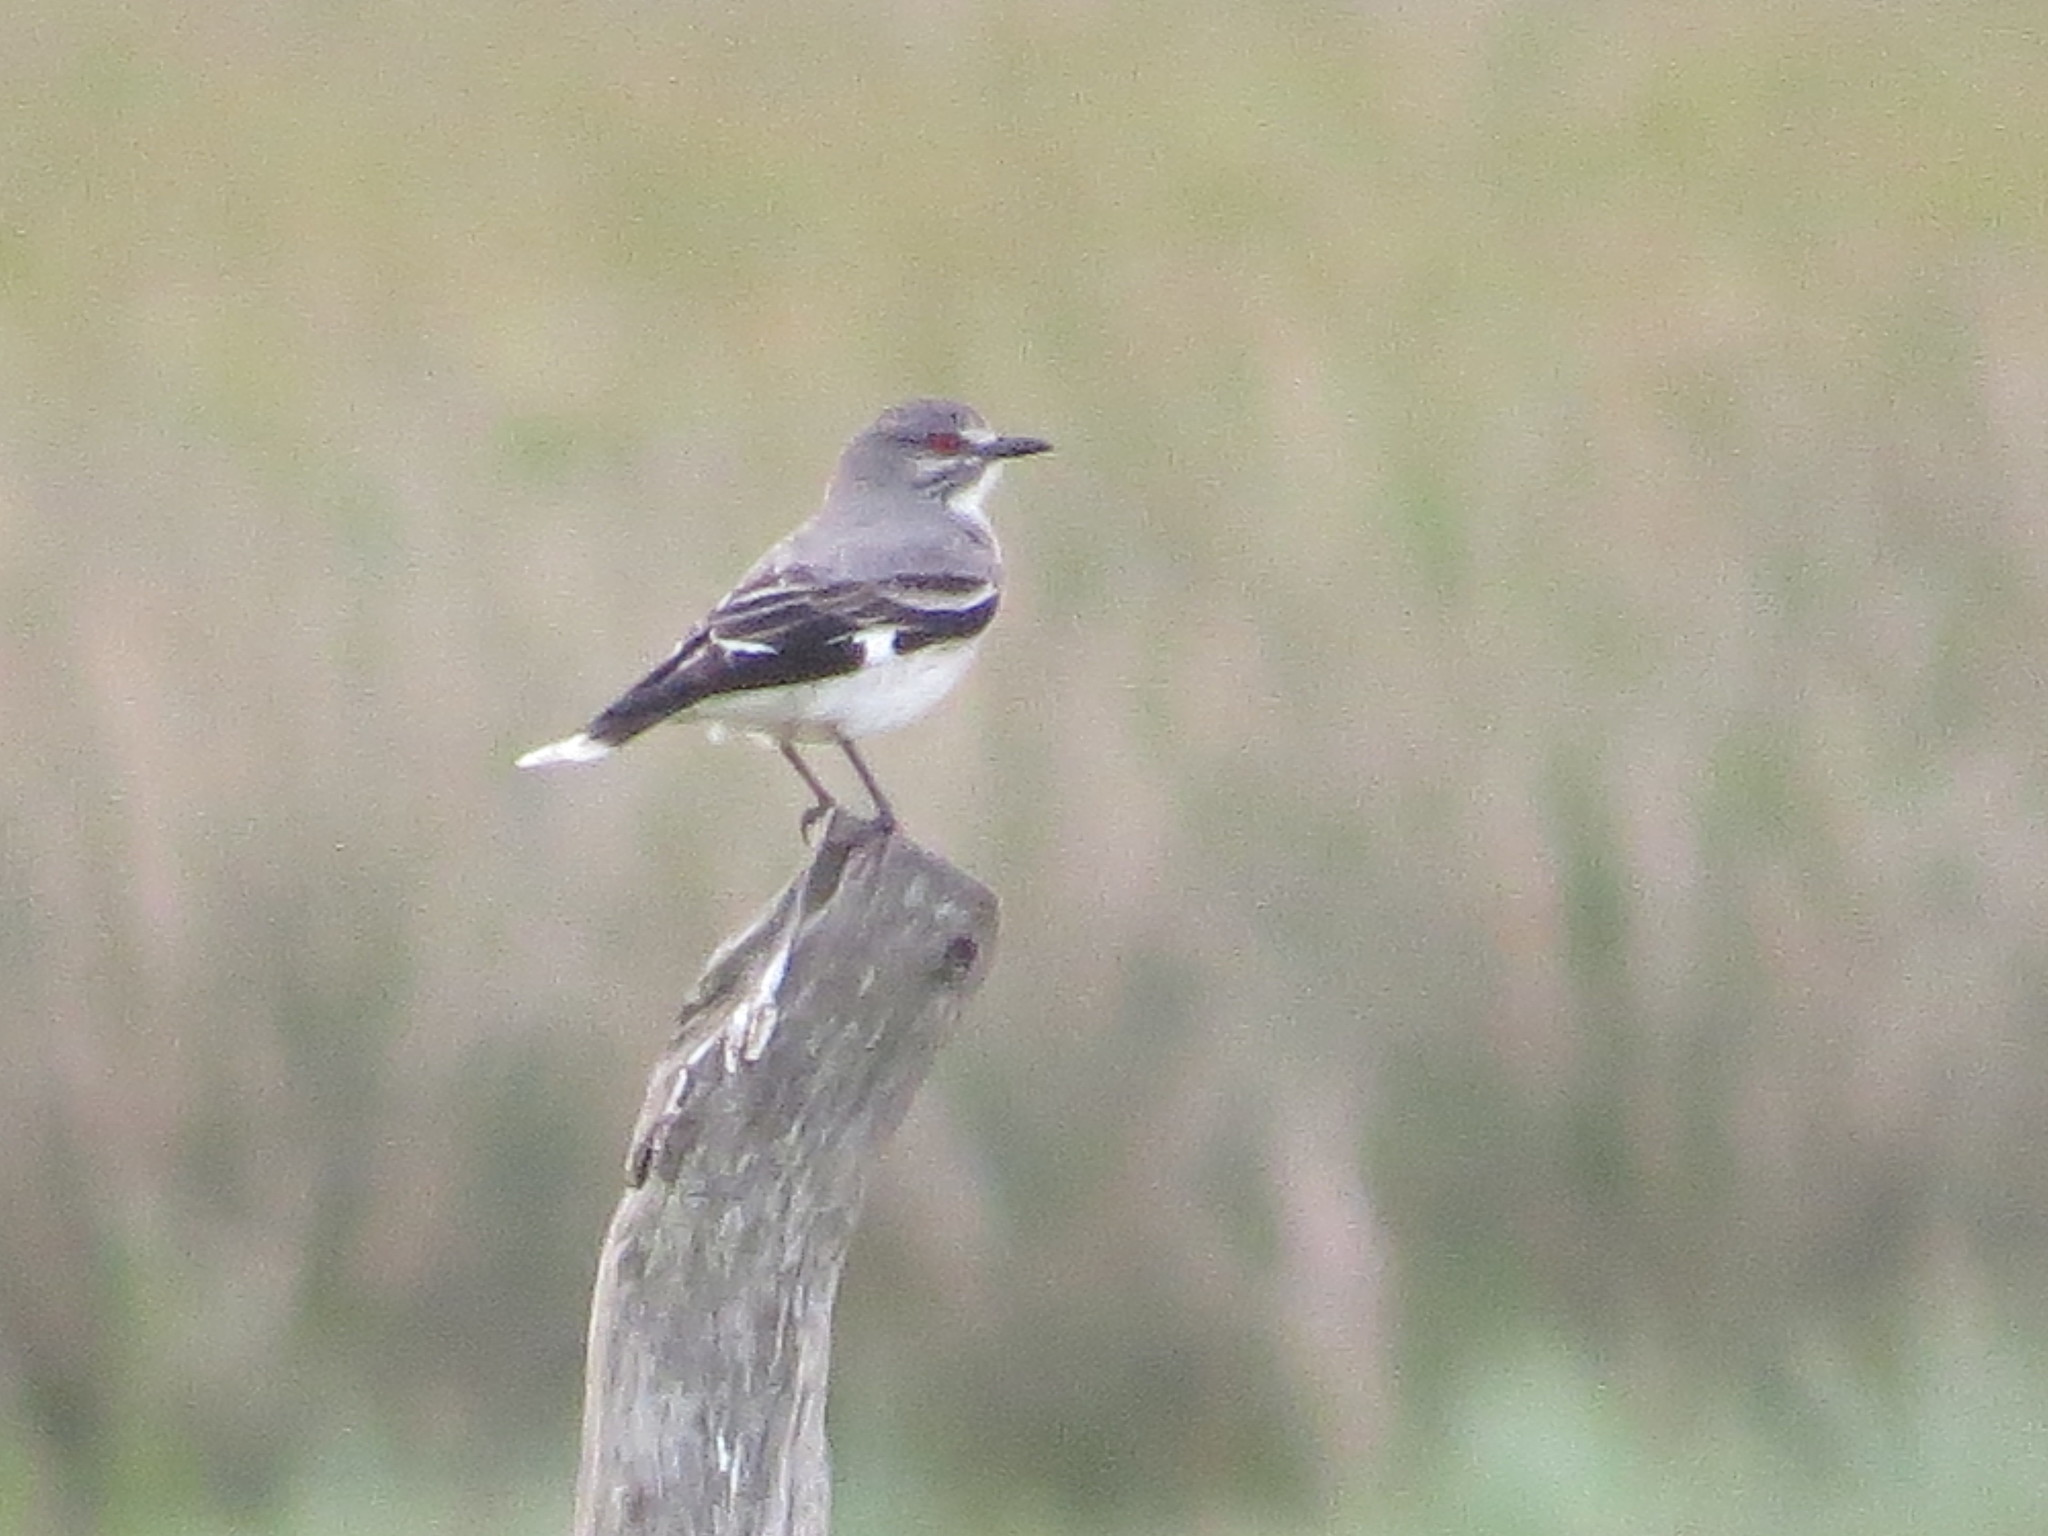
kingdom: Animalia
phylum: Chordata
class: Aves
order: Passeriformes
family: Tyrannidae
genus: Xolmis
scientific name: Xolmis cinereus
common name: Grey monjita
